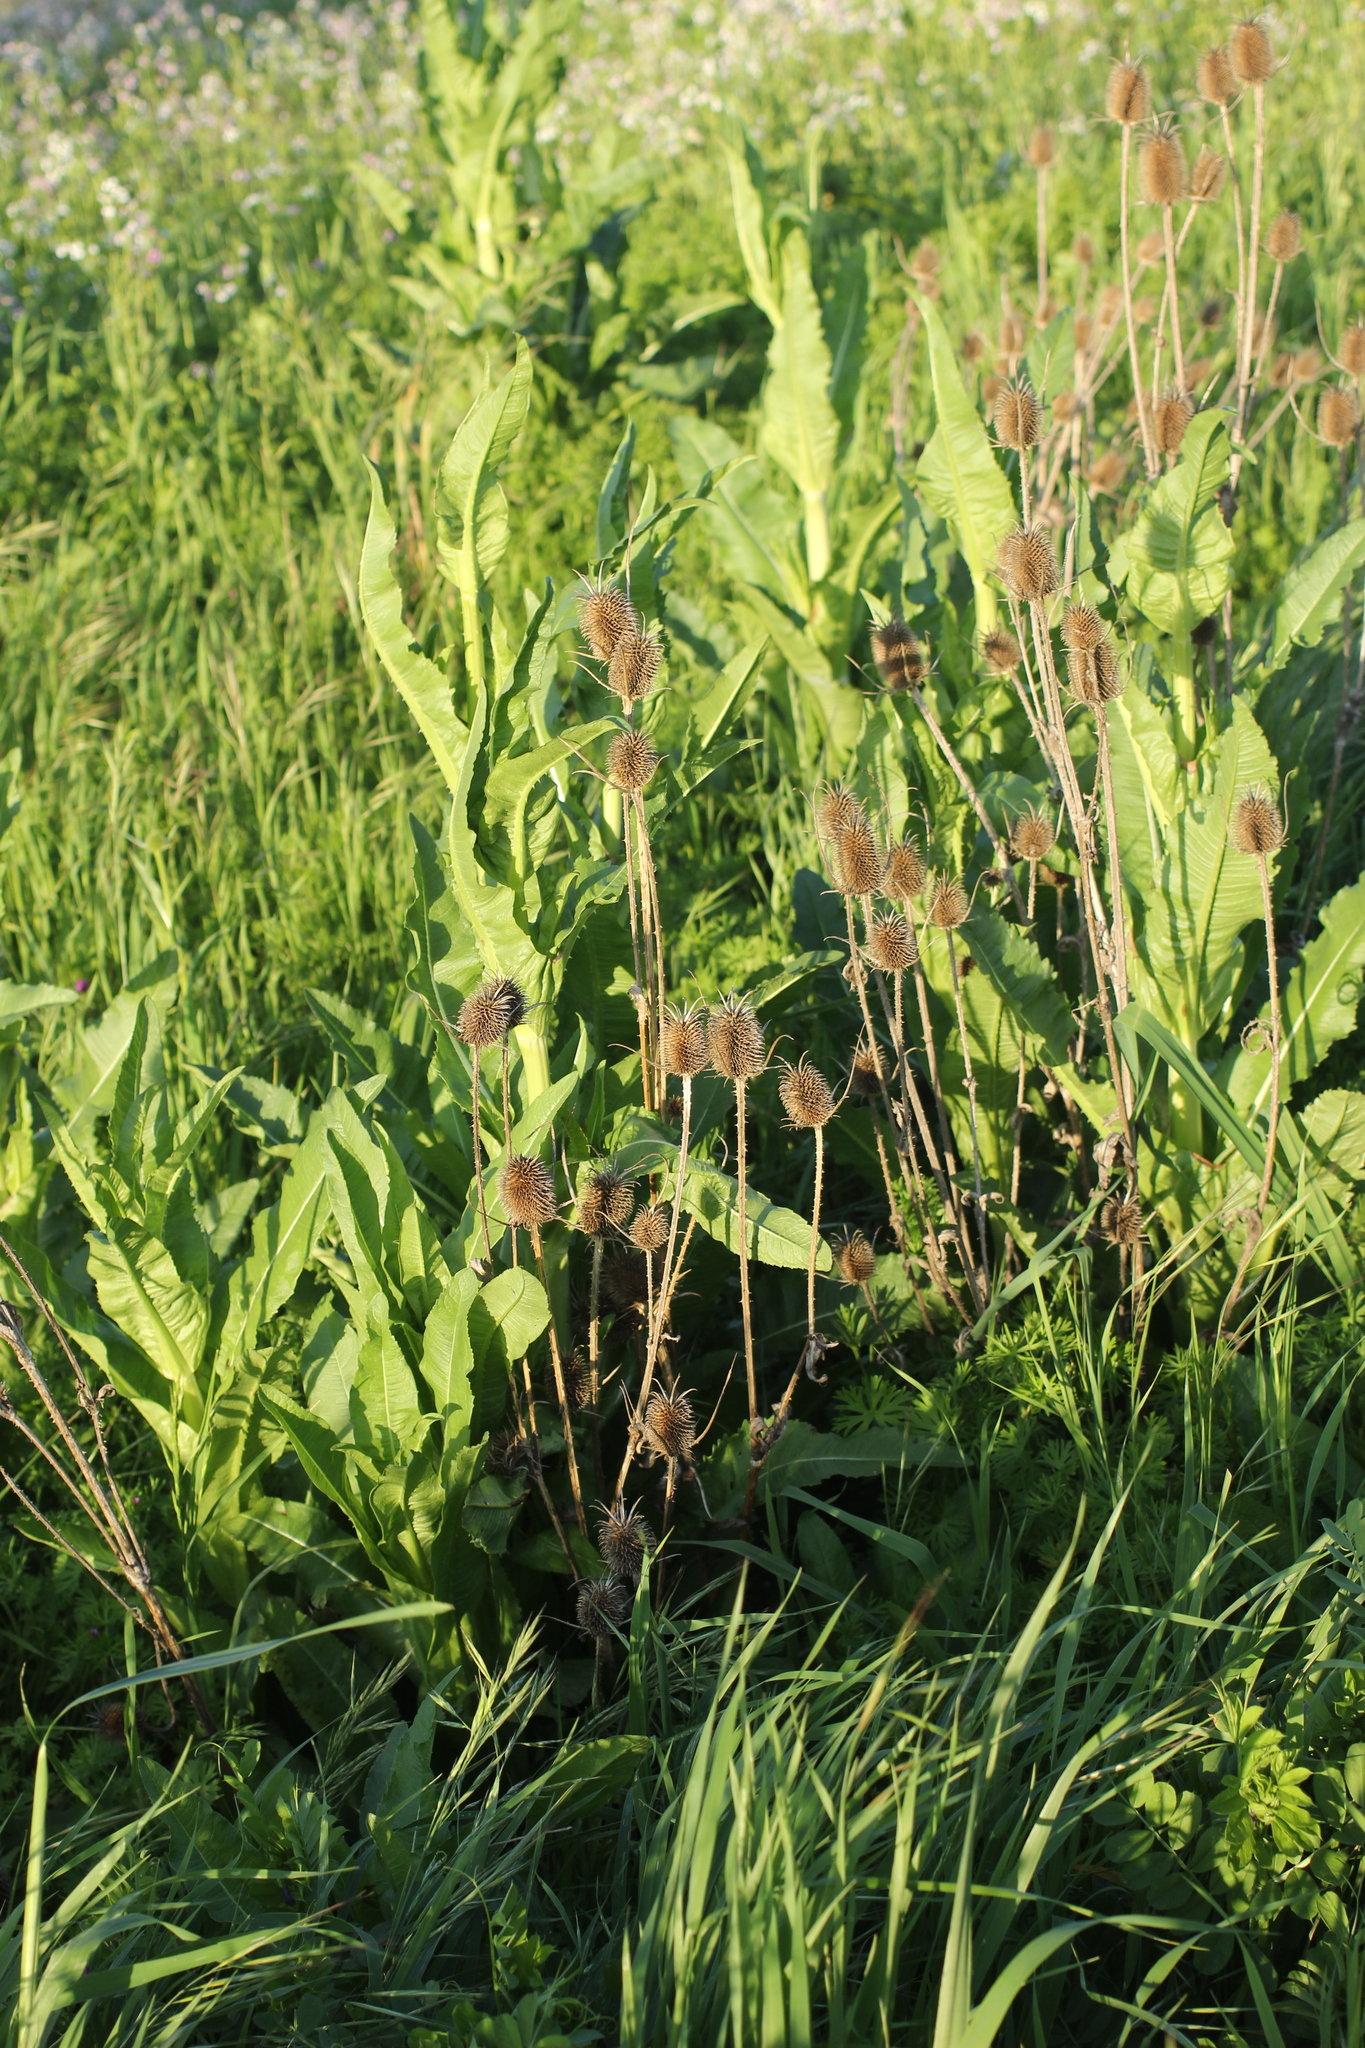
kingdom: Plantae
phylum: Tracheophyta
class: Magnoliopsida
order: Dipsacales
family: Caprifoliaceae
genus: Dipsacus
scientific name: Dipsacus sativus
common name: Fuller's teasel
